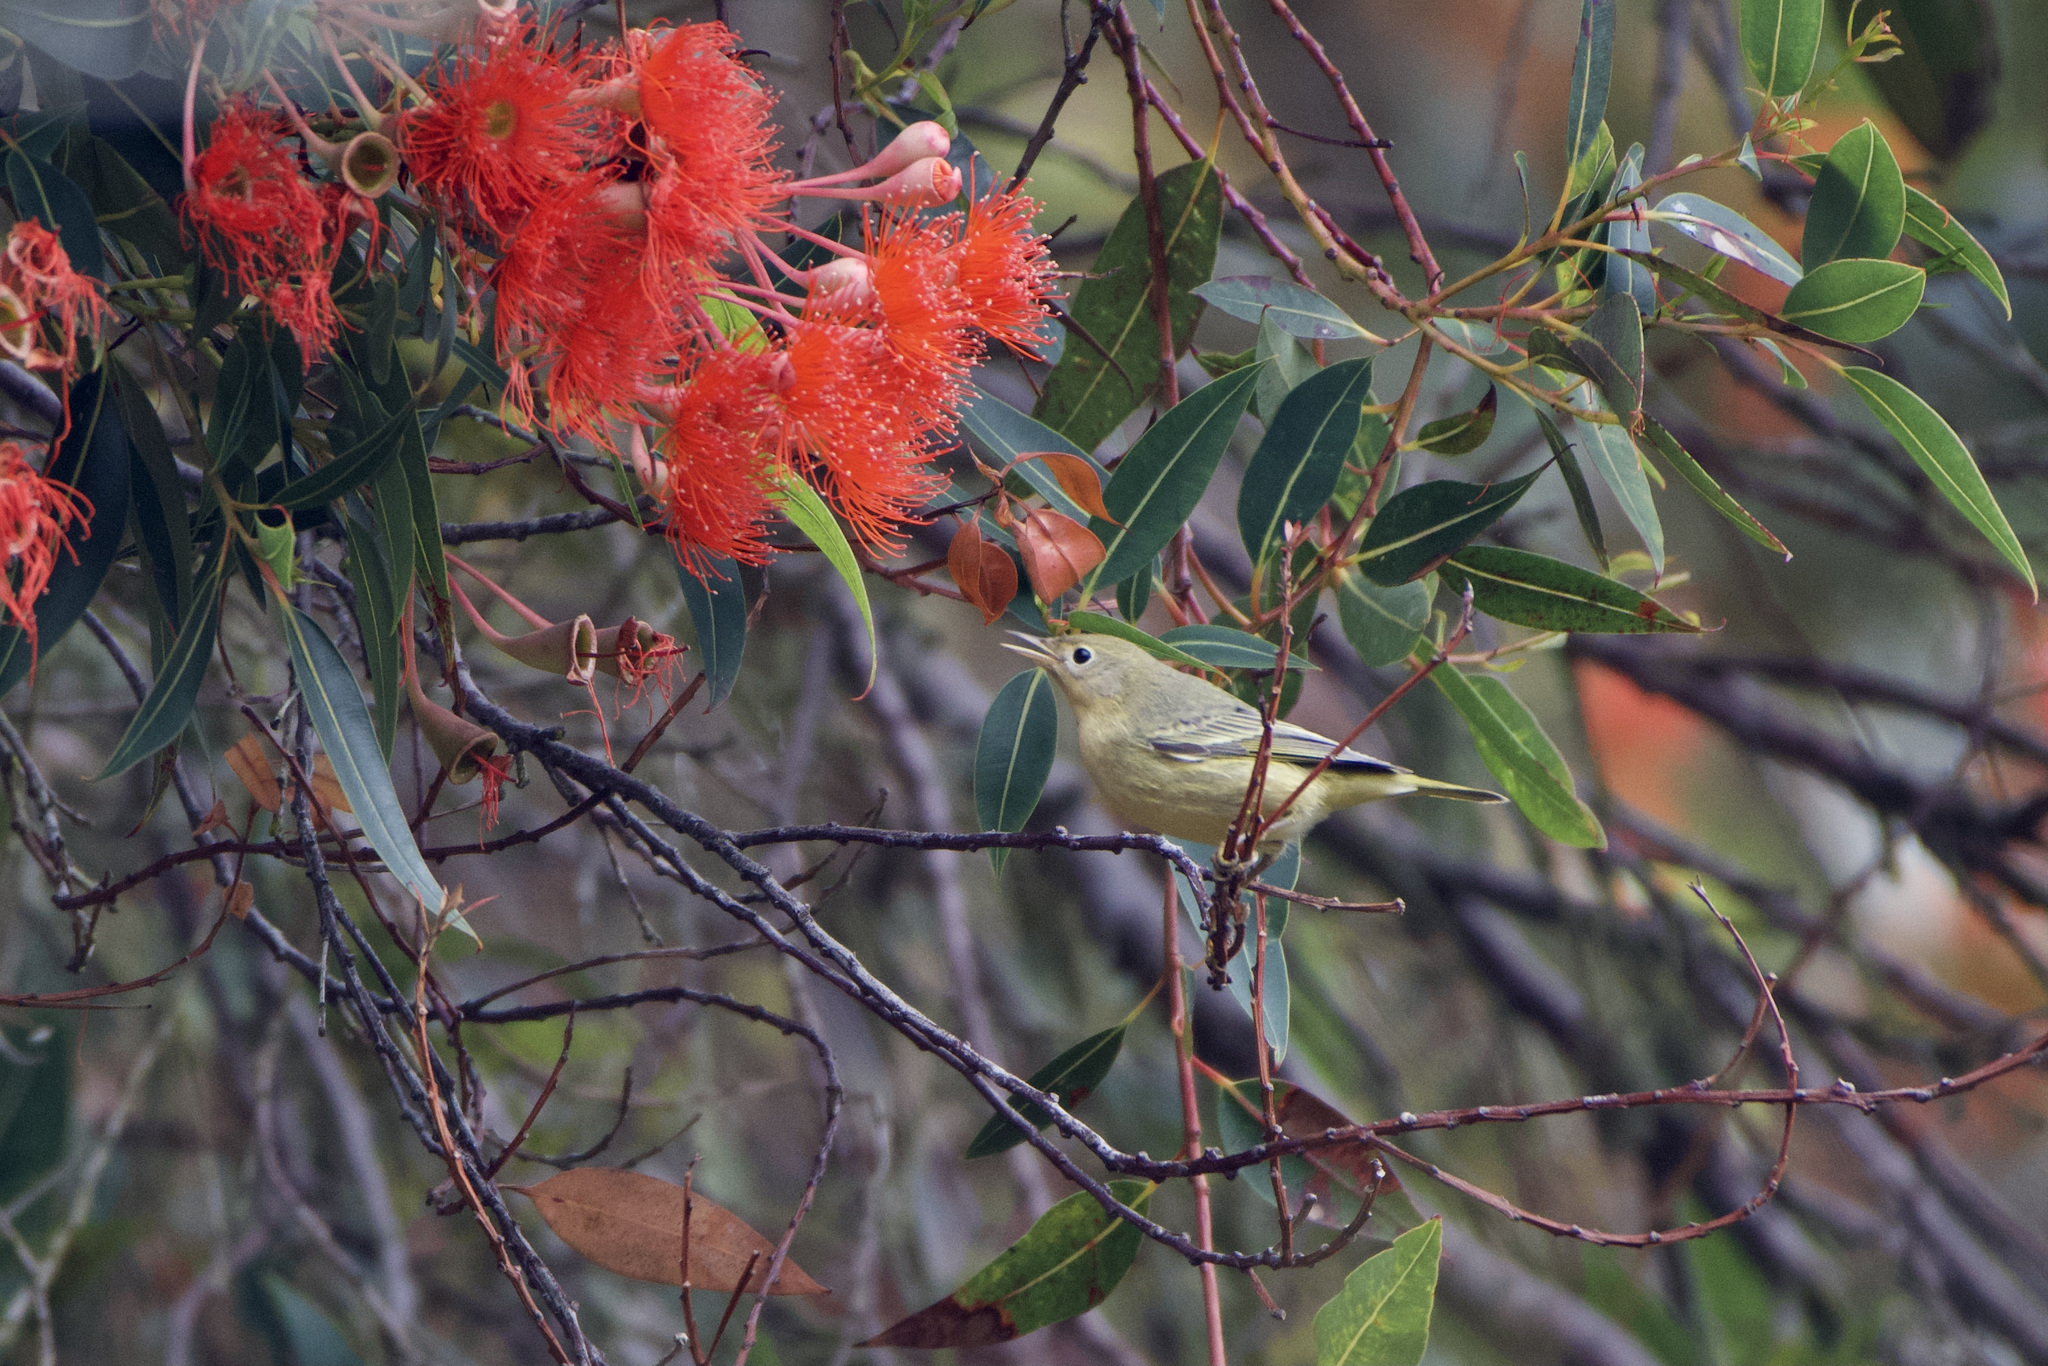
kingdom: Animalia
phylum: Chordata
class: Aves
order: Passeriformes
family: Parulidae
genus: Setophaga
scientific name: Setophaga petechia
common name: Yellow warbler
